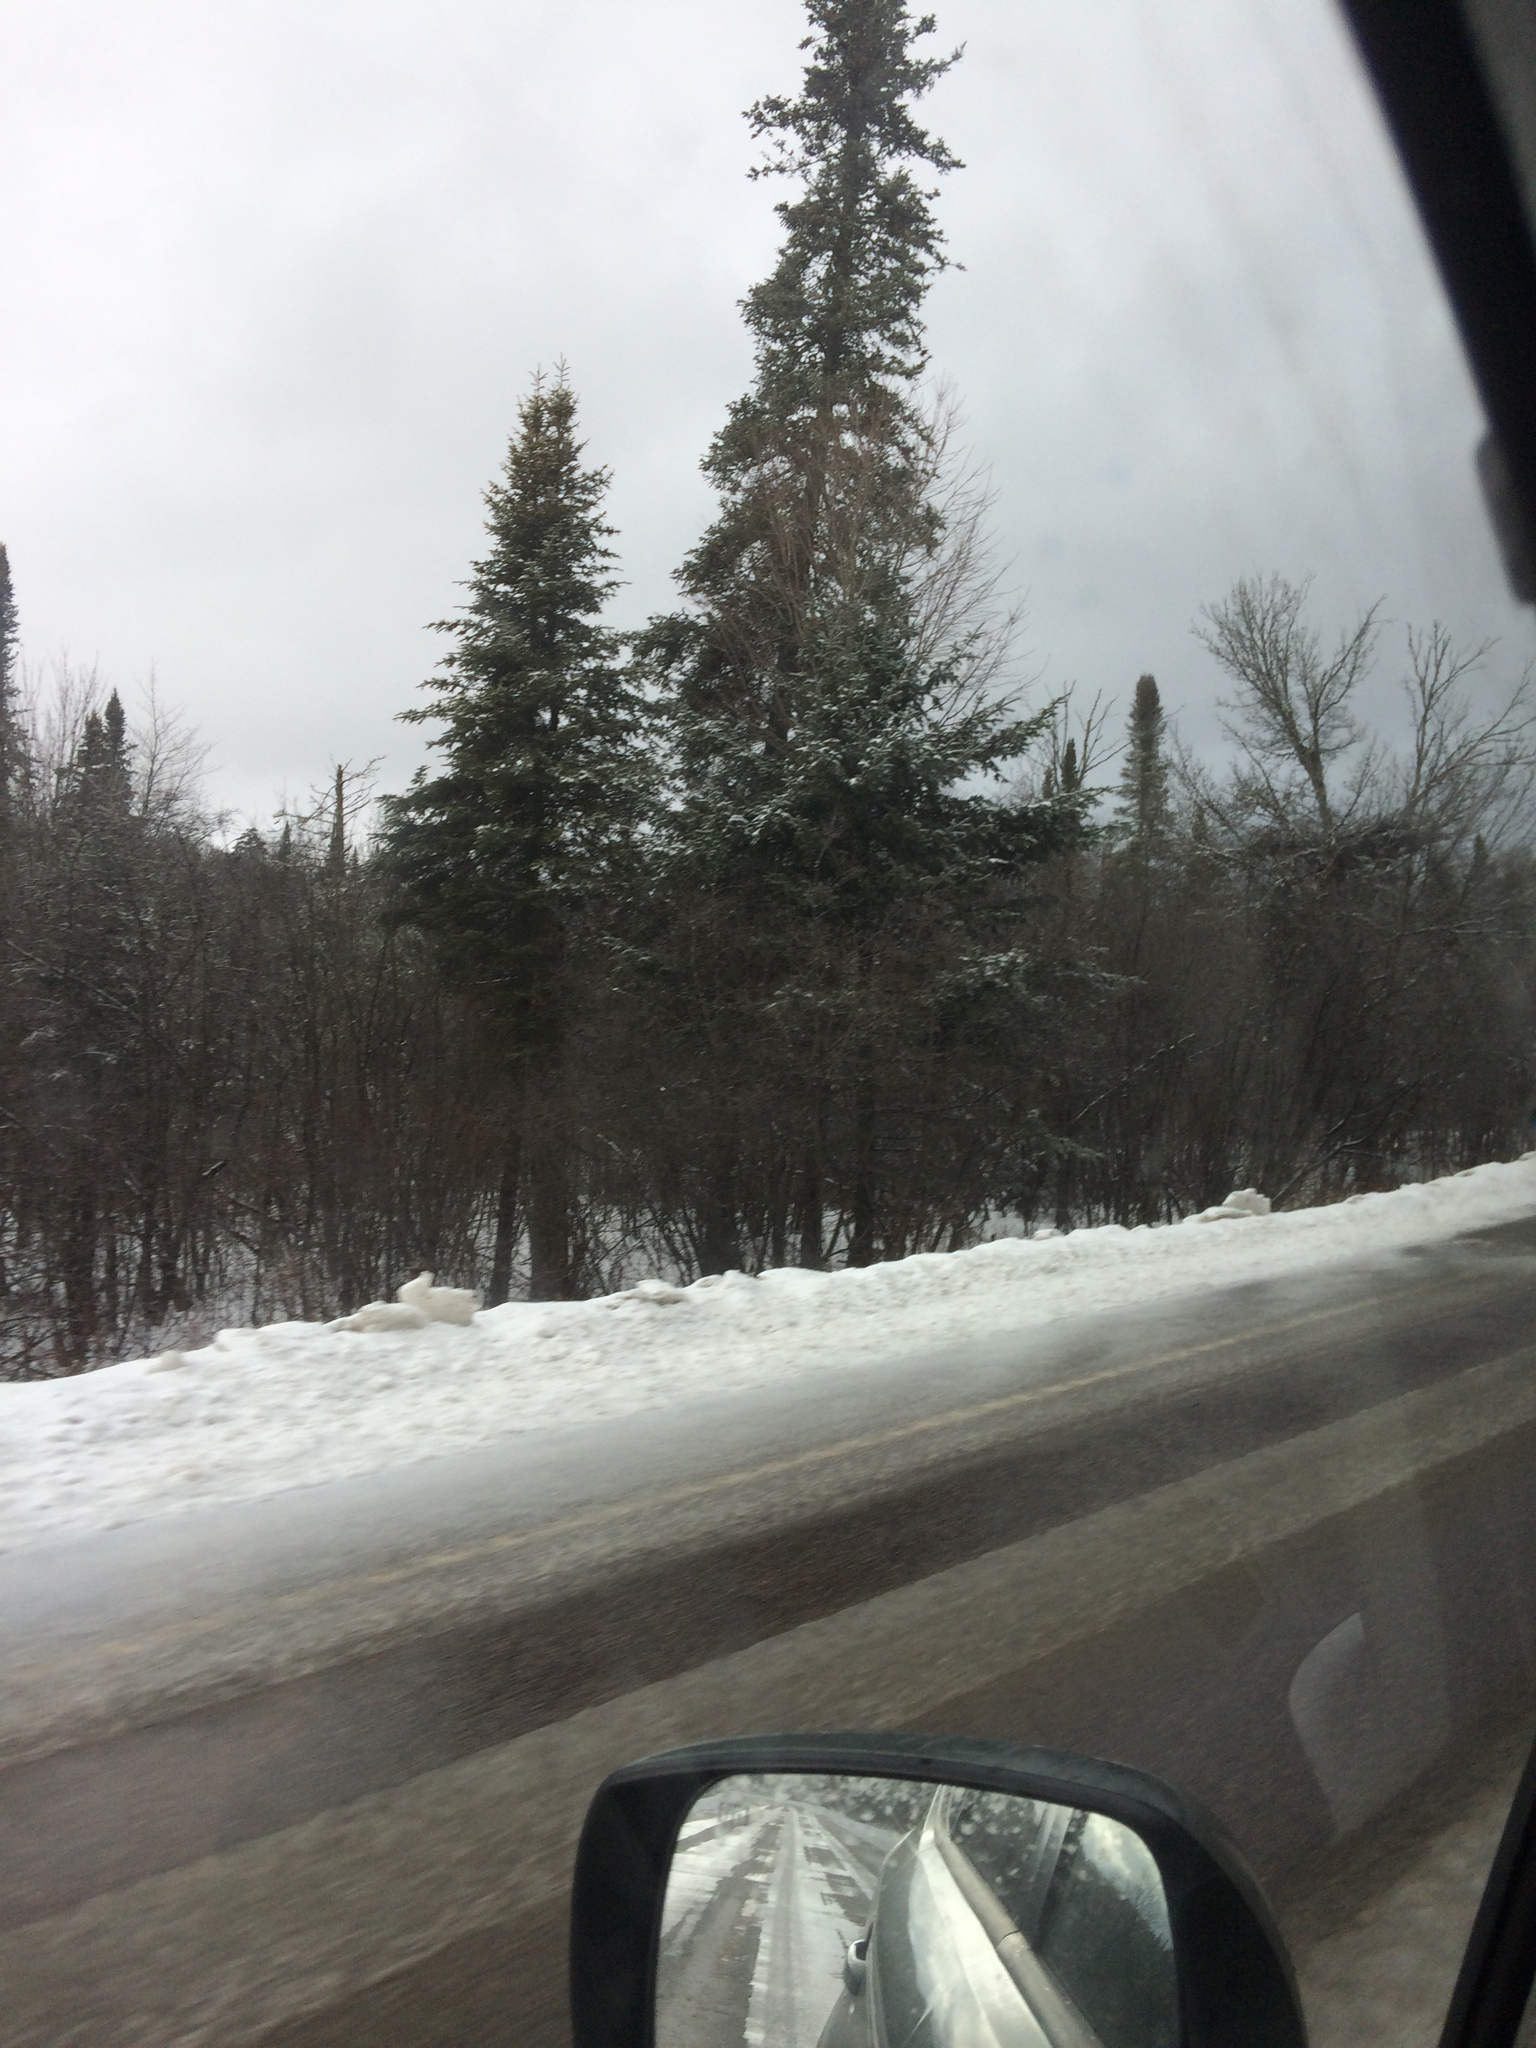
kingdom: Plantae
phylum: Tracheophyta
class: Pinopsida
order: Pinales
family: Pinaceae
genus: Abies
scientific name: Abies balsamea
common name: Balsam fir
